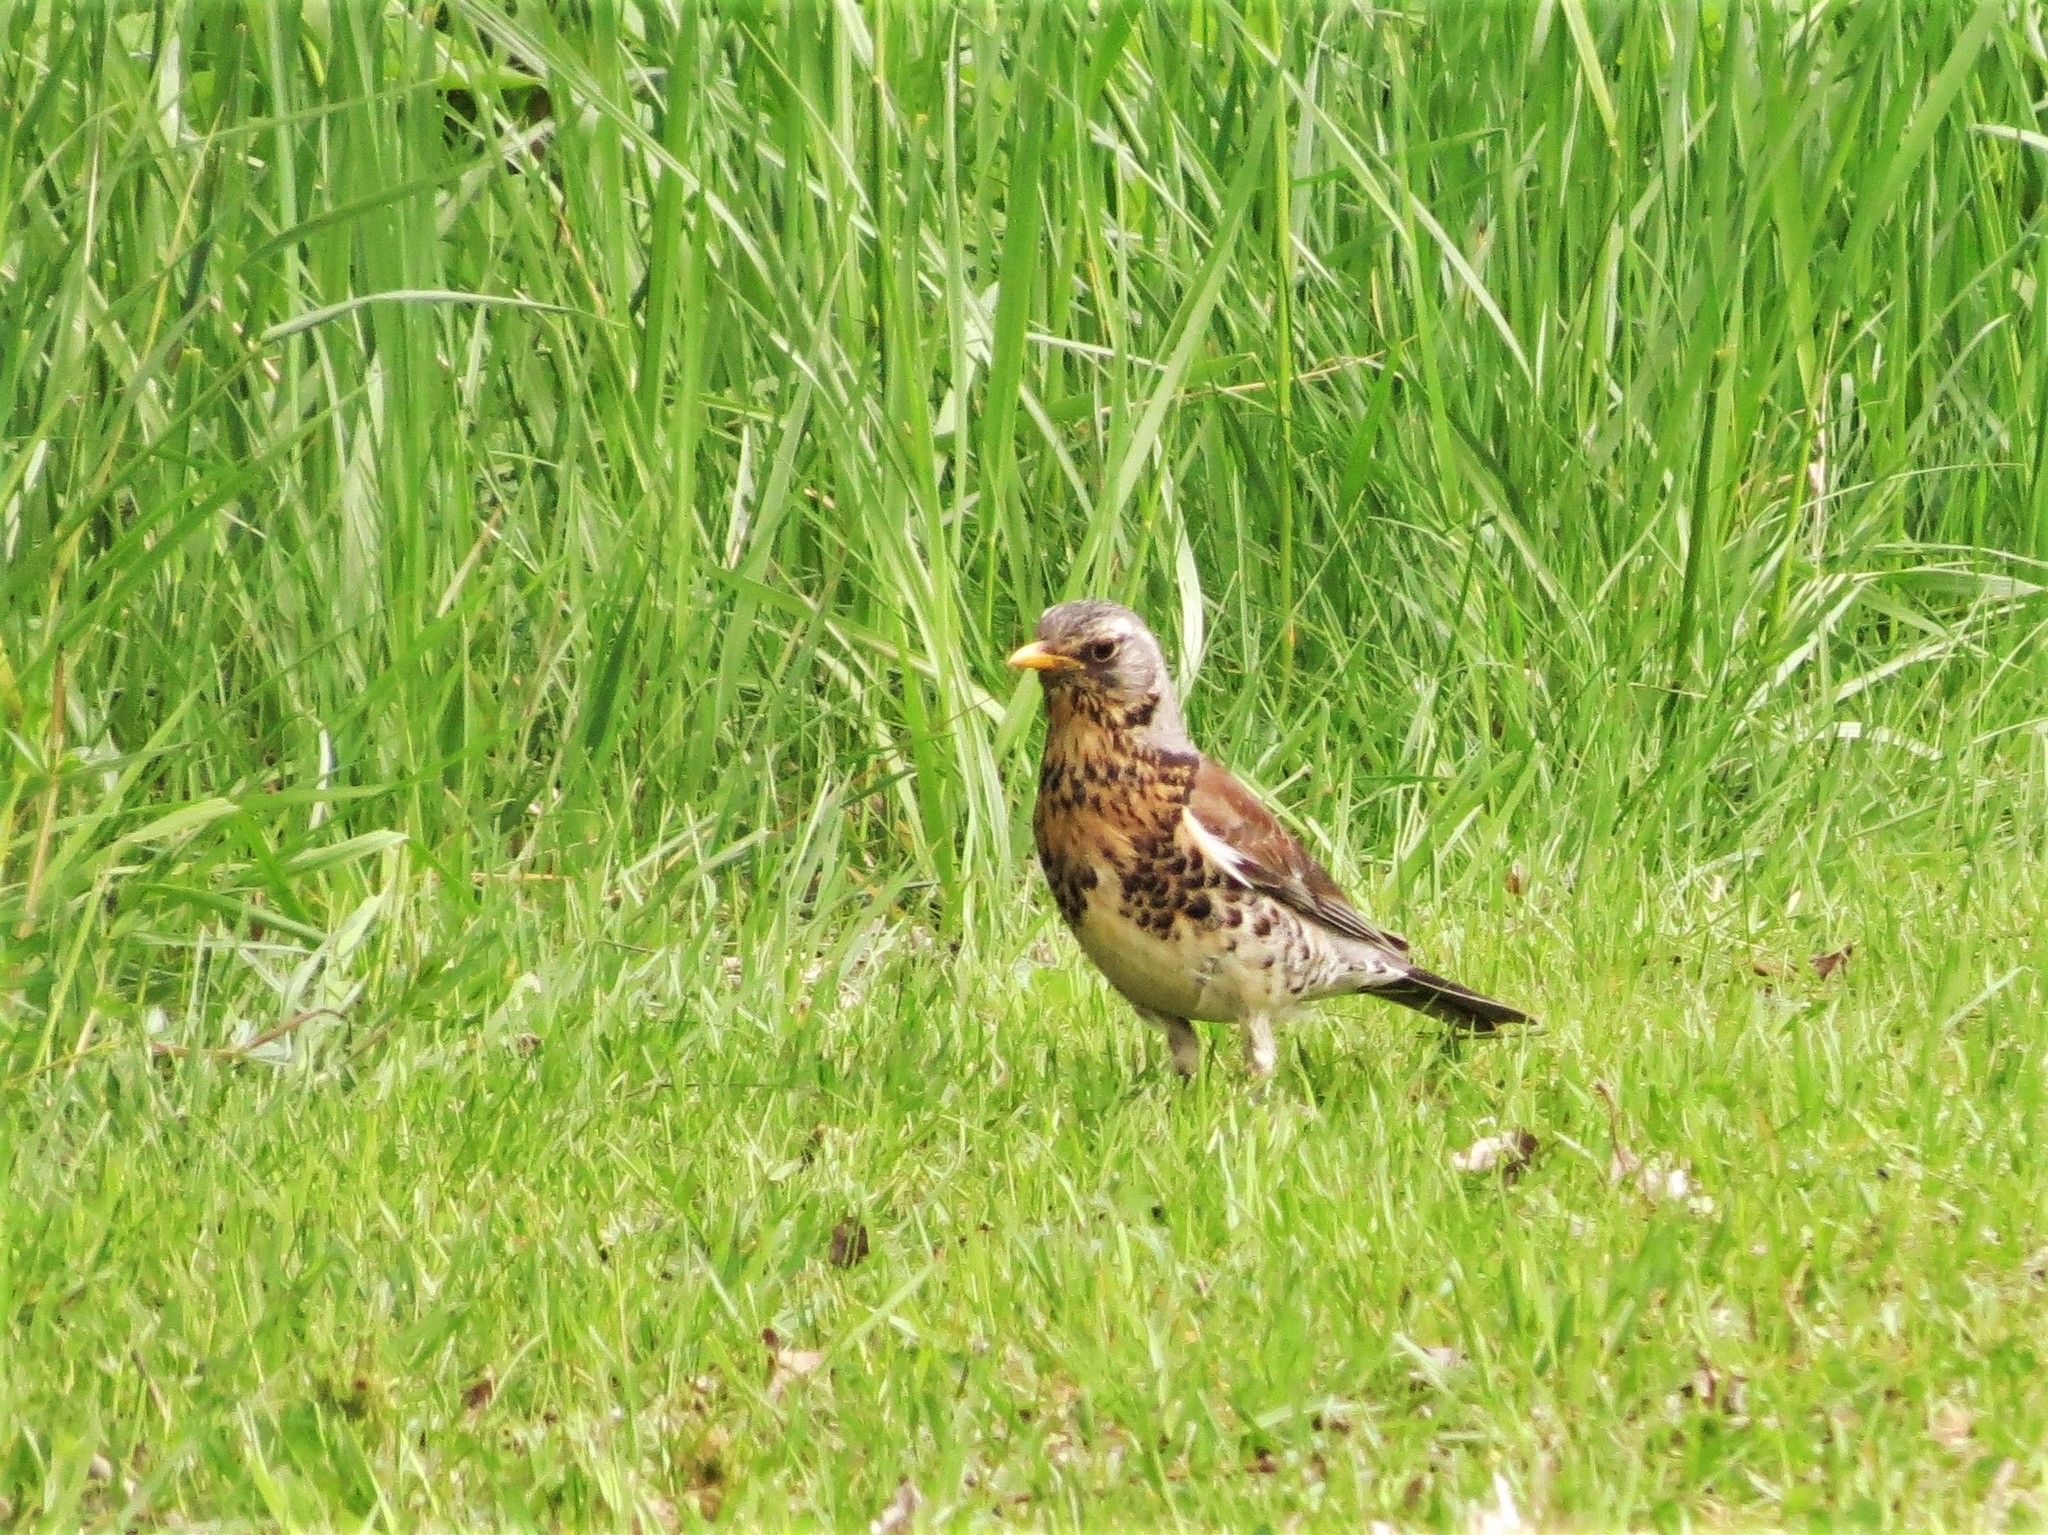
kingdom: Animalia
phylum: Chordata
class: Aves
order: Passeriformes
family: Turdidae
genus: Turdus
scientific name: Turdus pilaris
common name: Fieldfare
